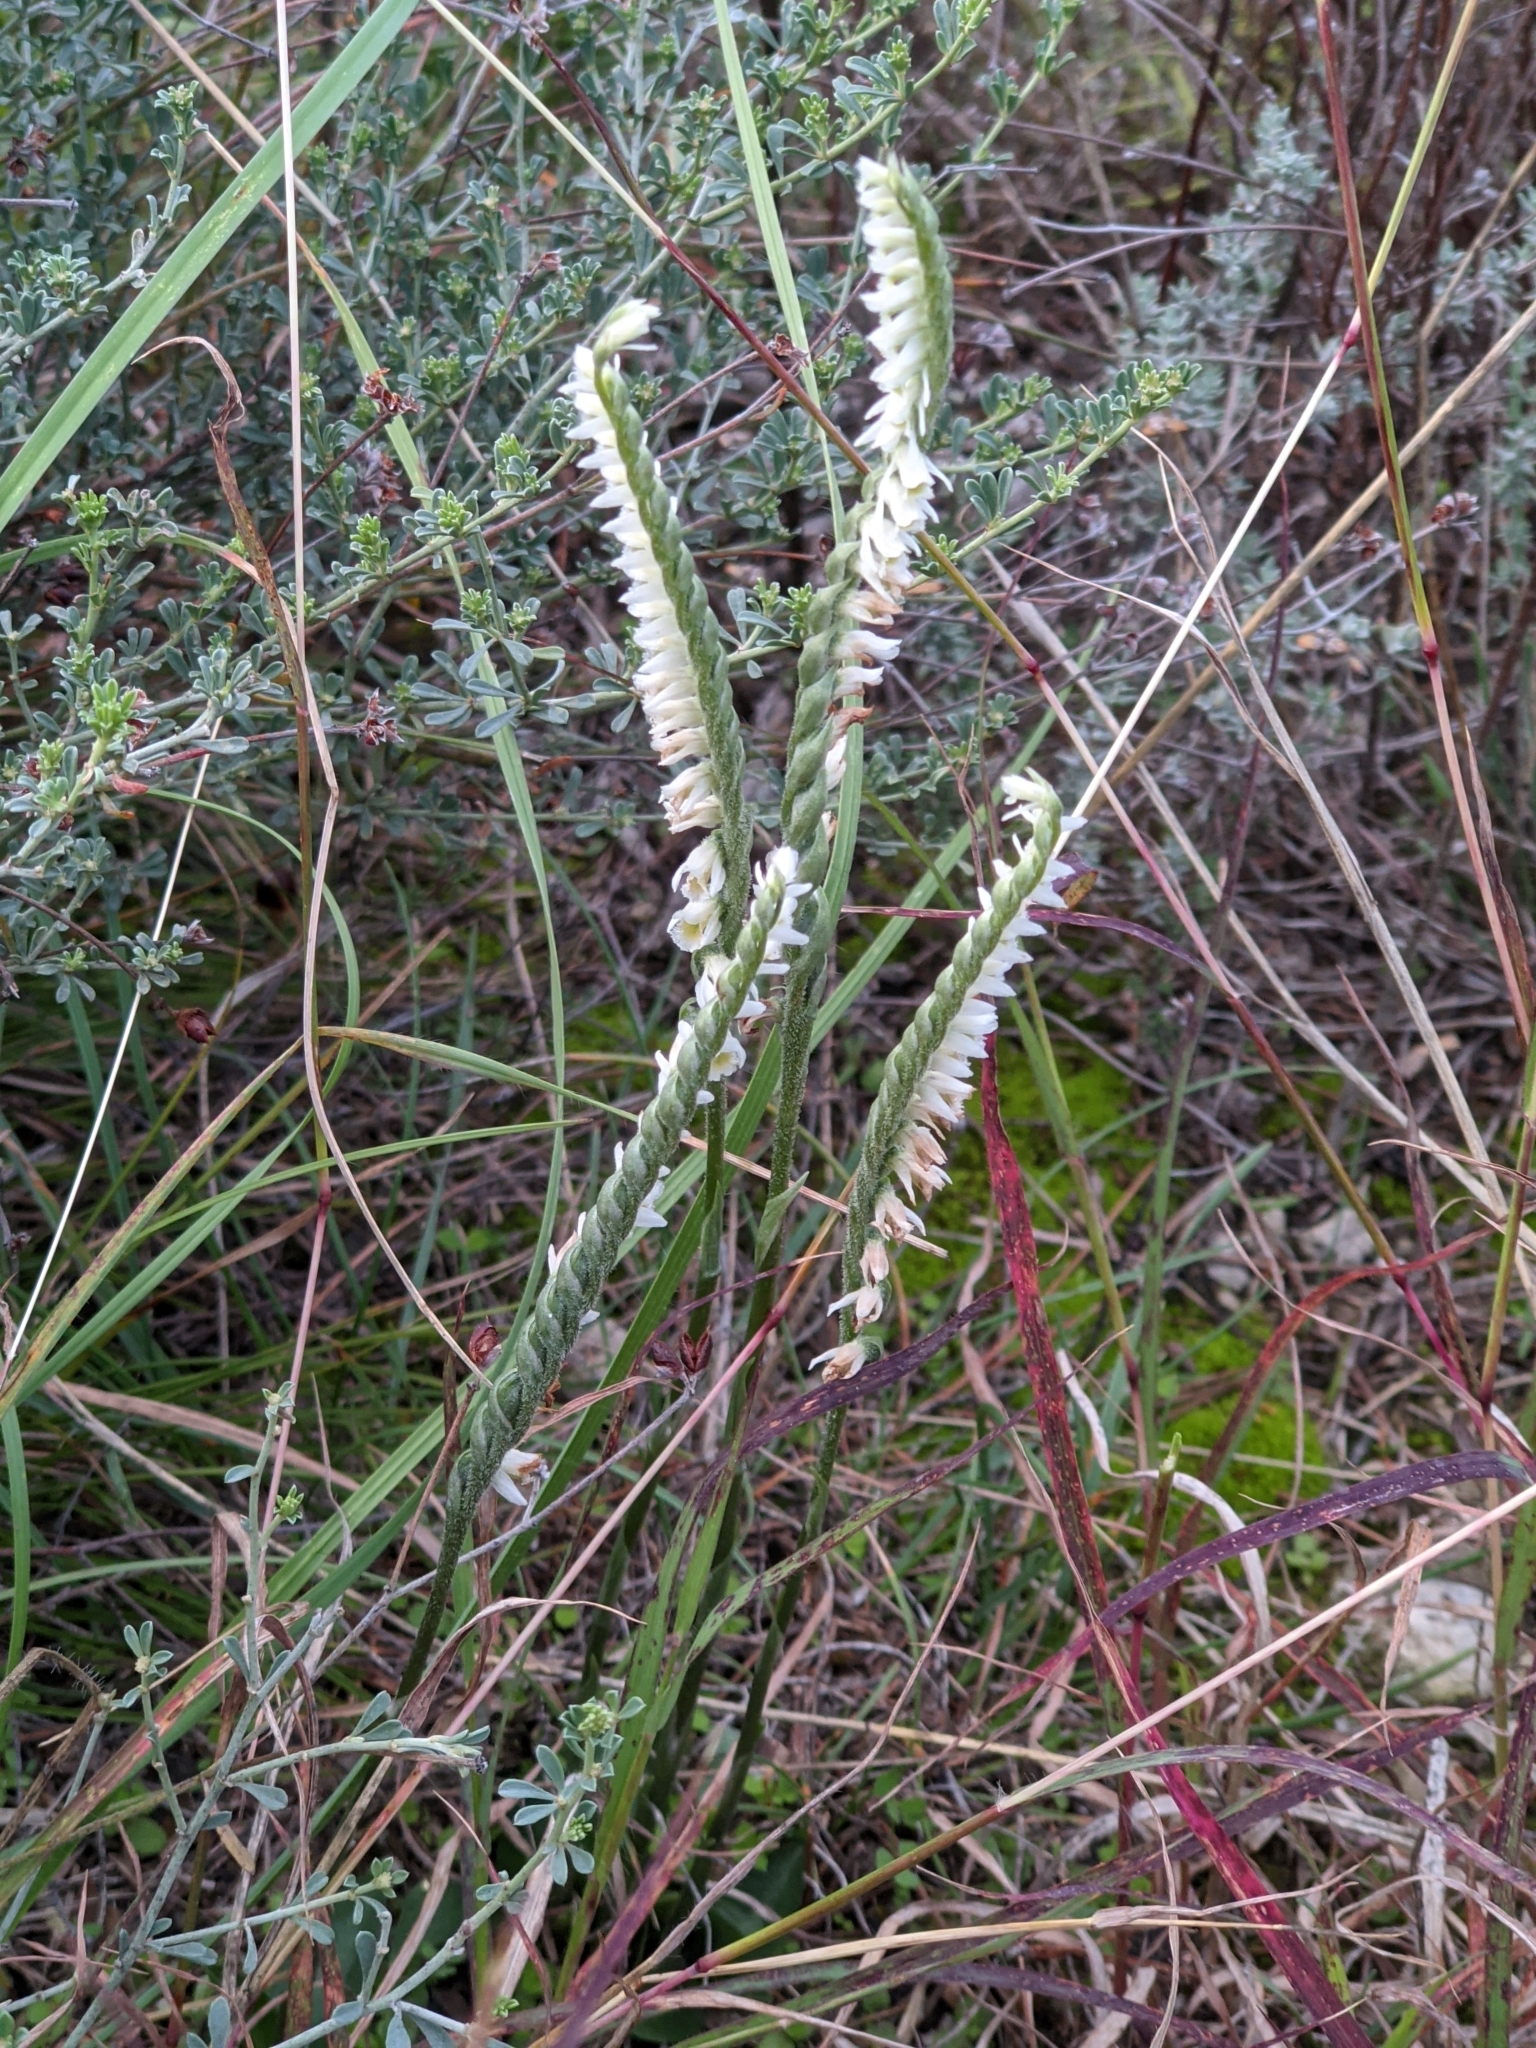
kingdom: Plantae
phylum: Tracheophyta
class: Liliopsida
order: Asparagales
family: Orchidaceae
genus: Spiranthes
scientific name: Spiranthes spiralis
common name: Autumn lady's-tresses
